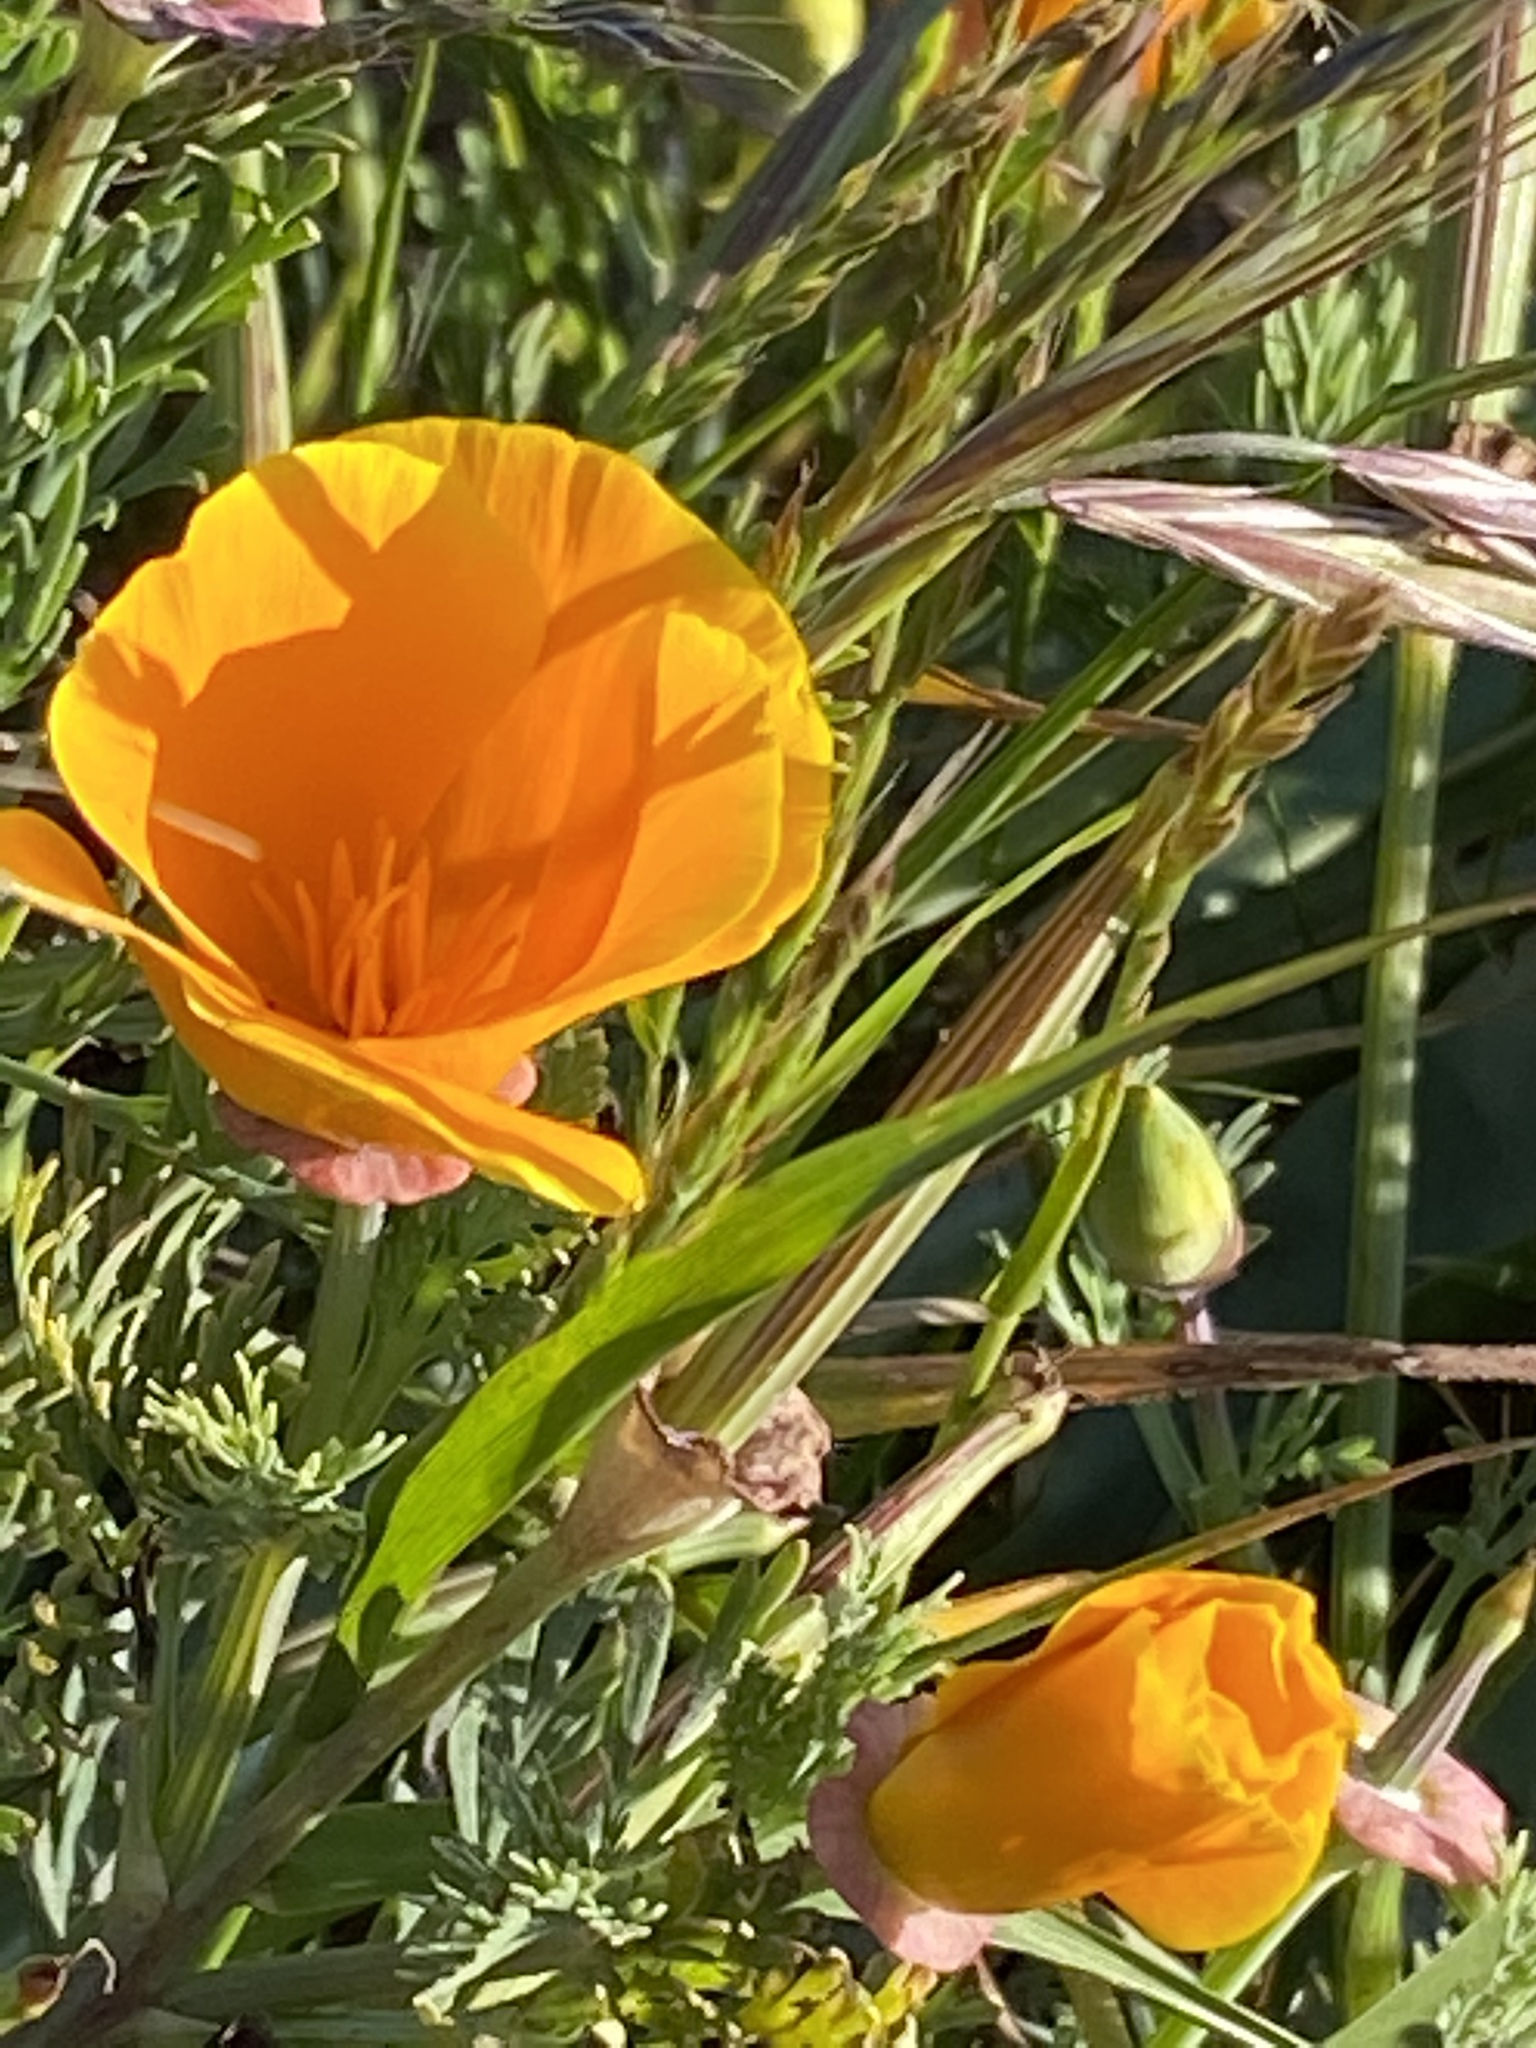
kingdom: Plantae
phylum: Tracheophyta
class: Magnoliopsida
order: Ranunculales
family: Papaveraceae
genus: Eschscholzia
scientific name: Eschscholzia californica
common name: California poppy
